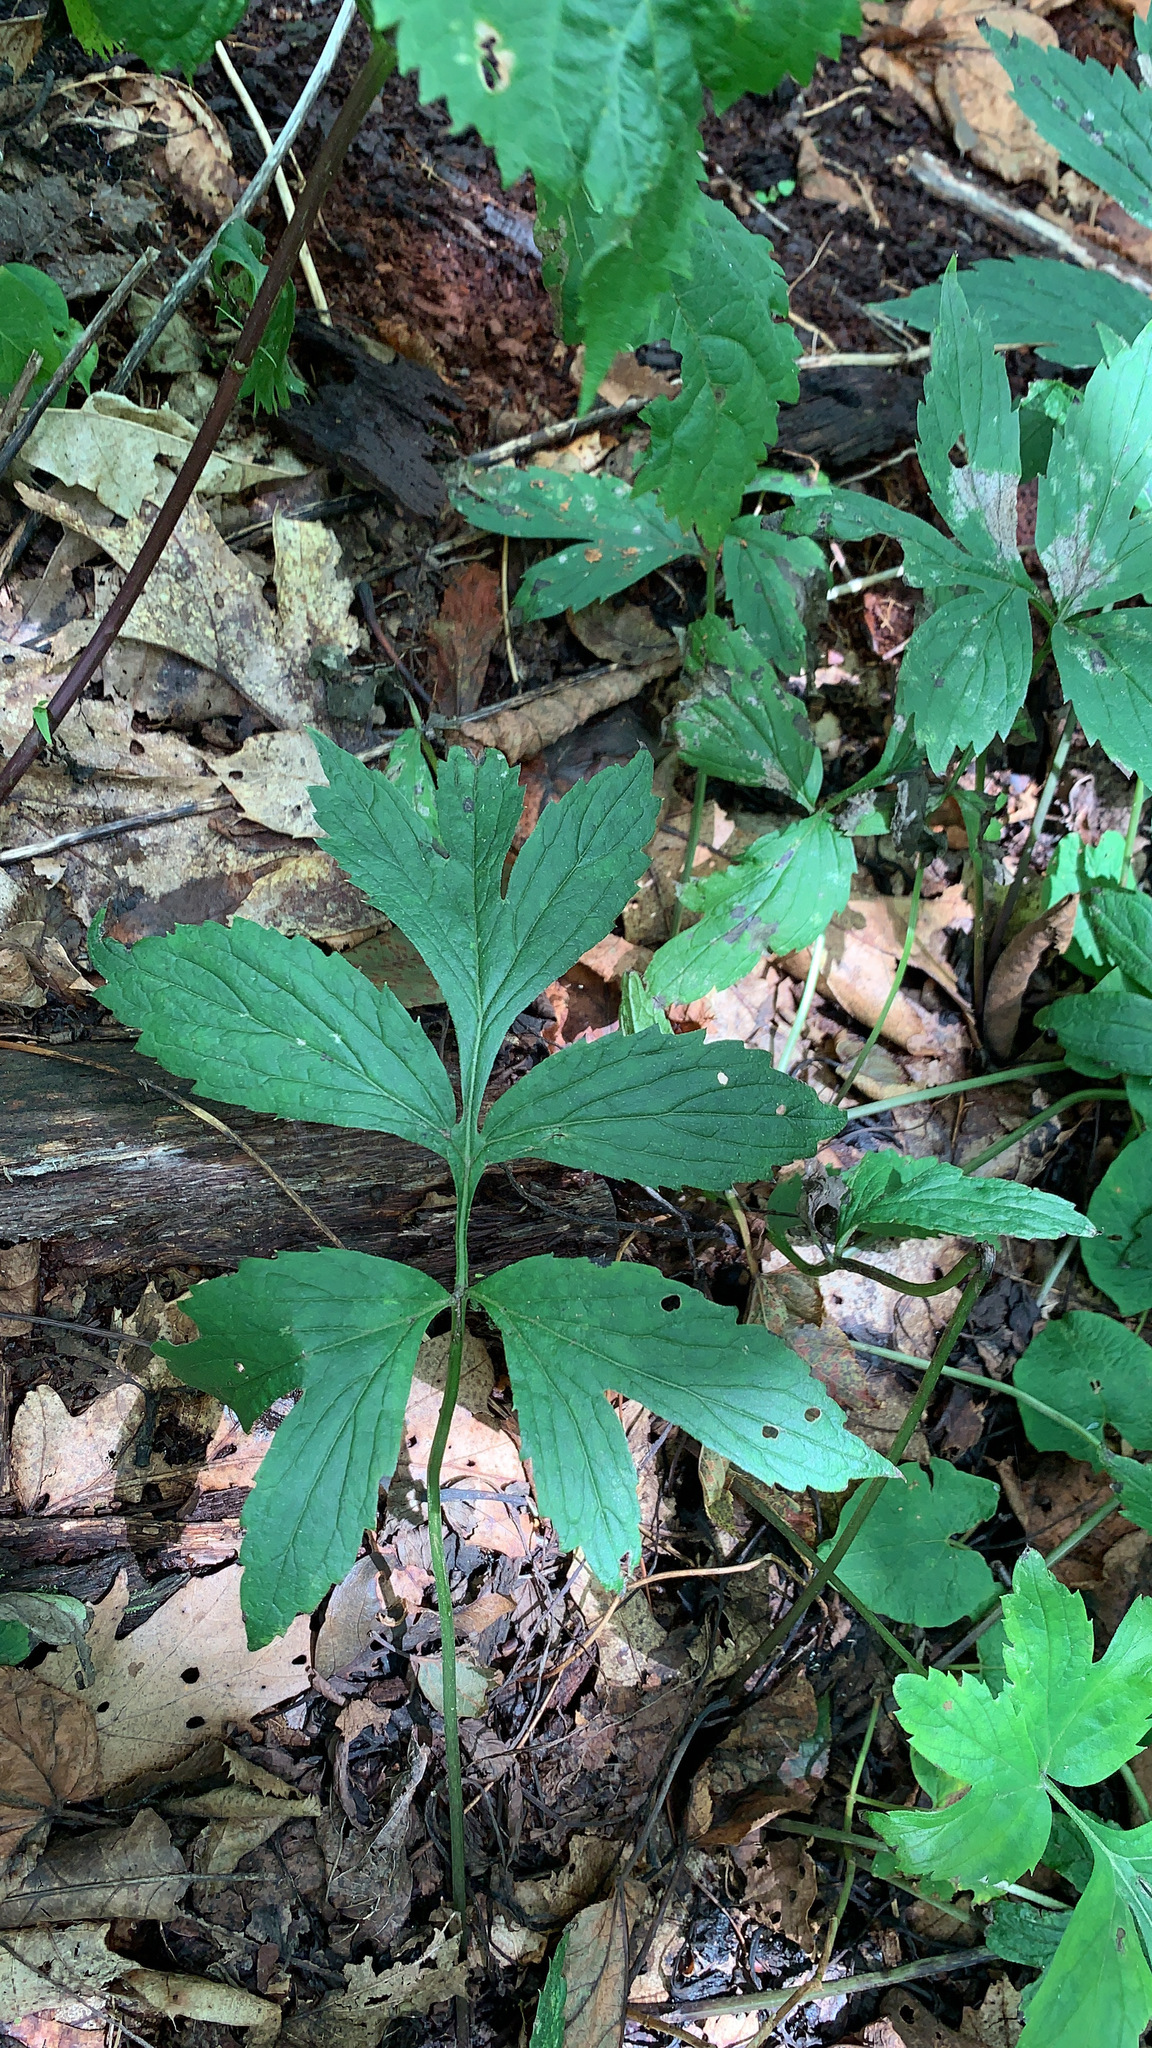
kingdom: Plantae
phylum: Tracheophyta
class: Magnoliopsida
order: Boraginales
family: Hydrophyllaceae
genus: Hydrophyllum
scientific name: Hydrophyllum virginianum
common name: Virginia waterleaf
